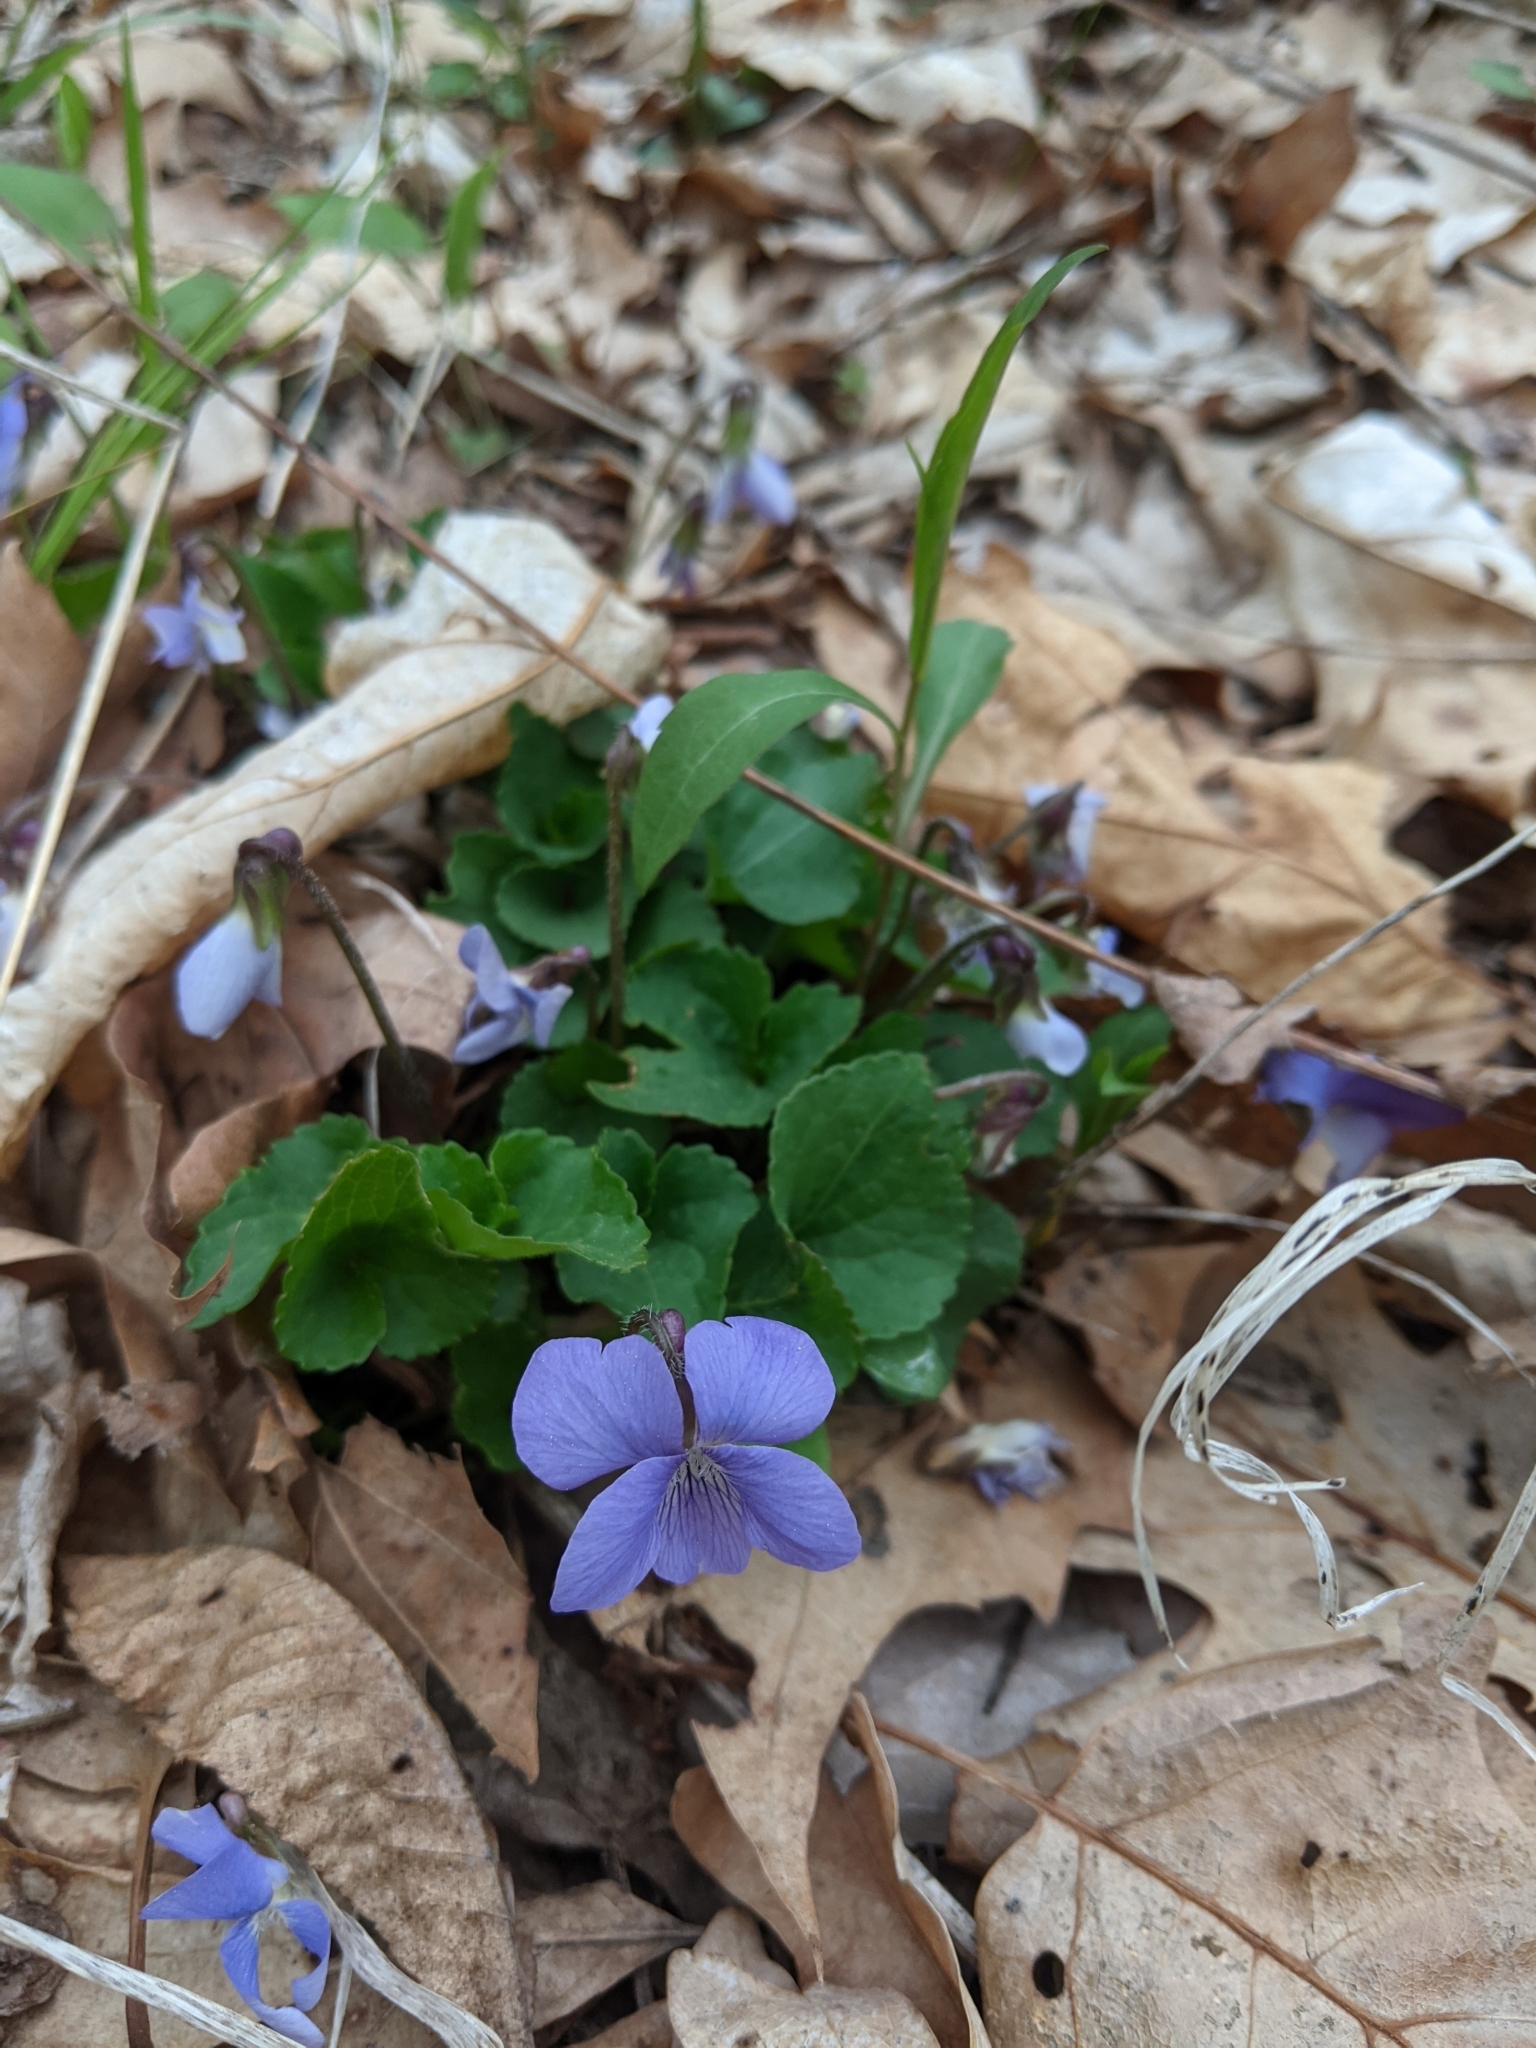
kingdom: Plantae
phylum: Tracheophyta
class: Magnoliopsida
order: Malpighiales
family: Violaceae
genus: Viola
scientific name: Viola sororia
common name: Dooryard violet
